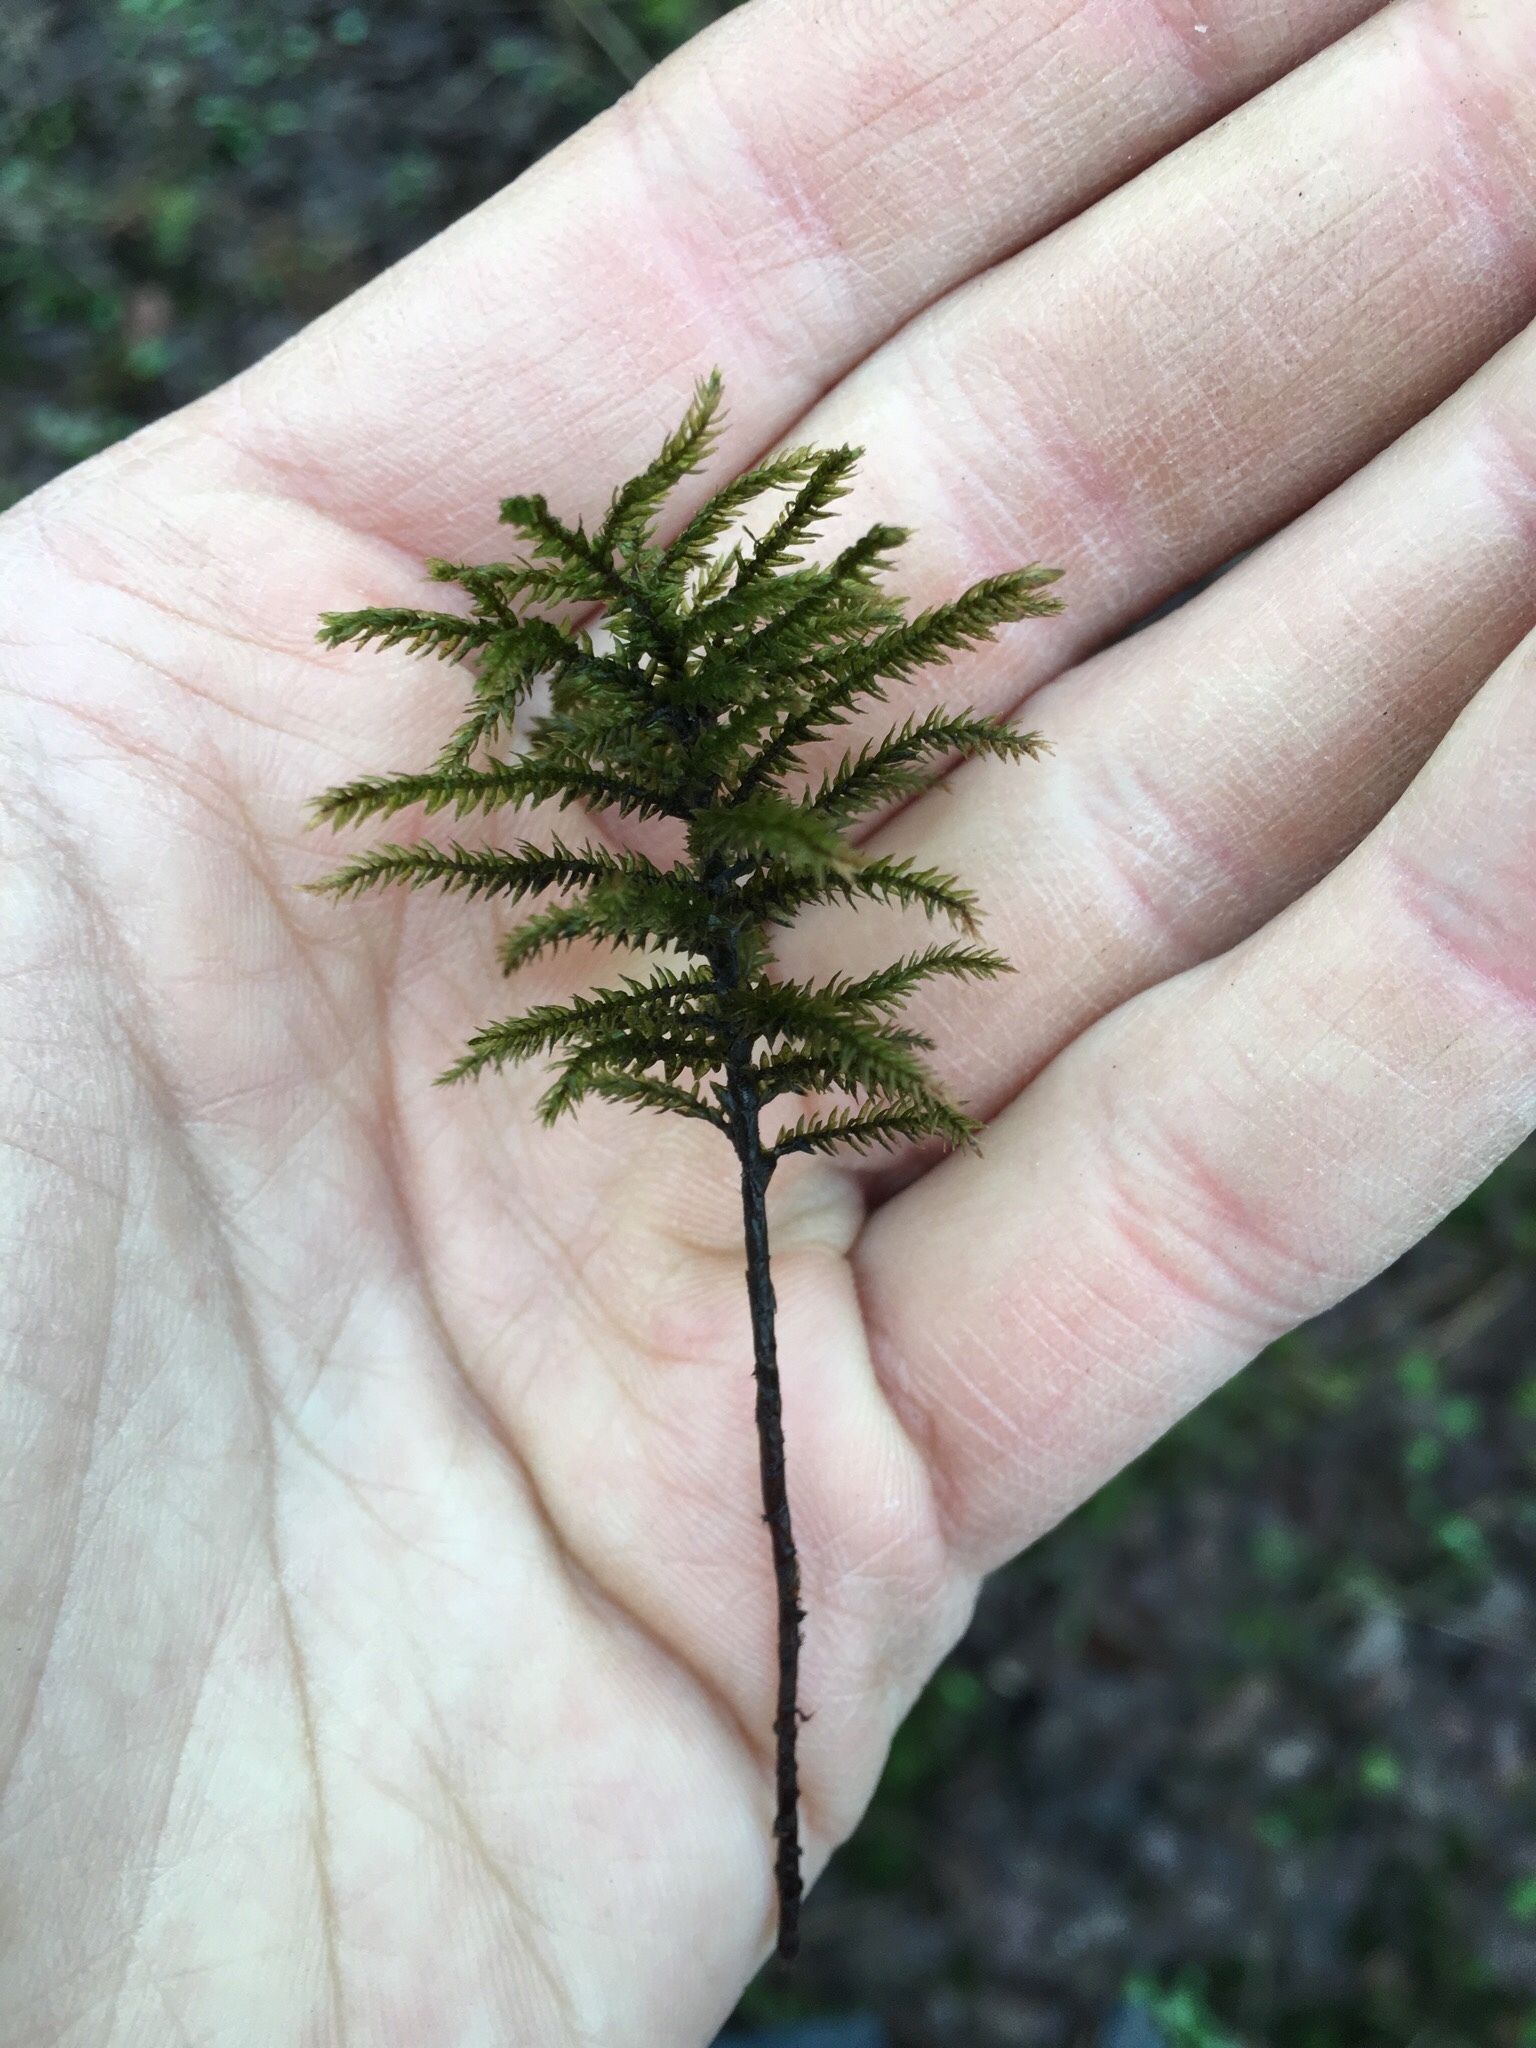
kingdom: Plantae
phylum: Bryophyta
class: Bryopsida
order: Hypnales
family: Climaciaceae
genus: Climacium
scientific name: Climacium dendroides
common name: Northern tree moss
